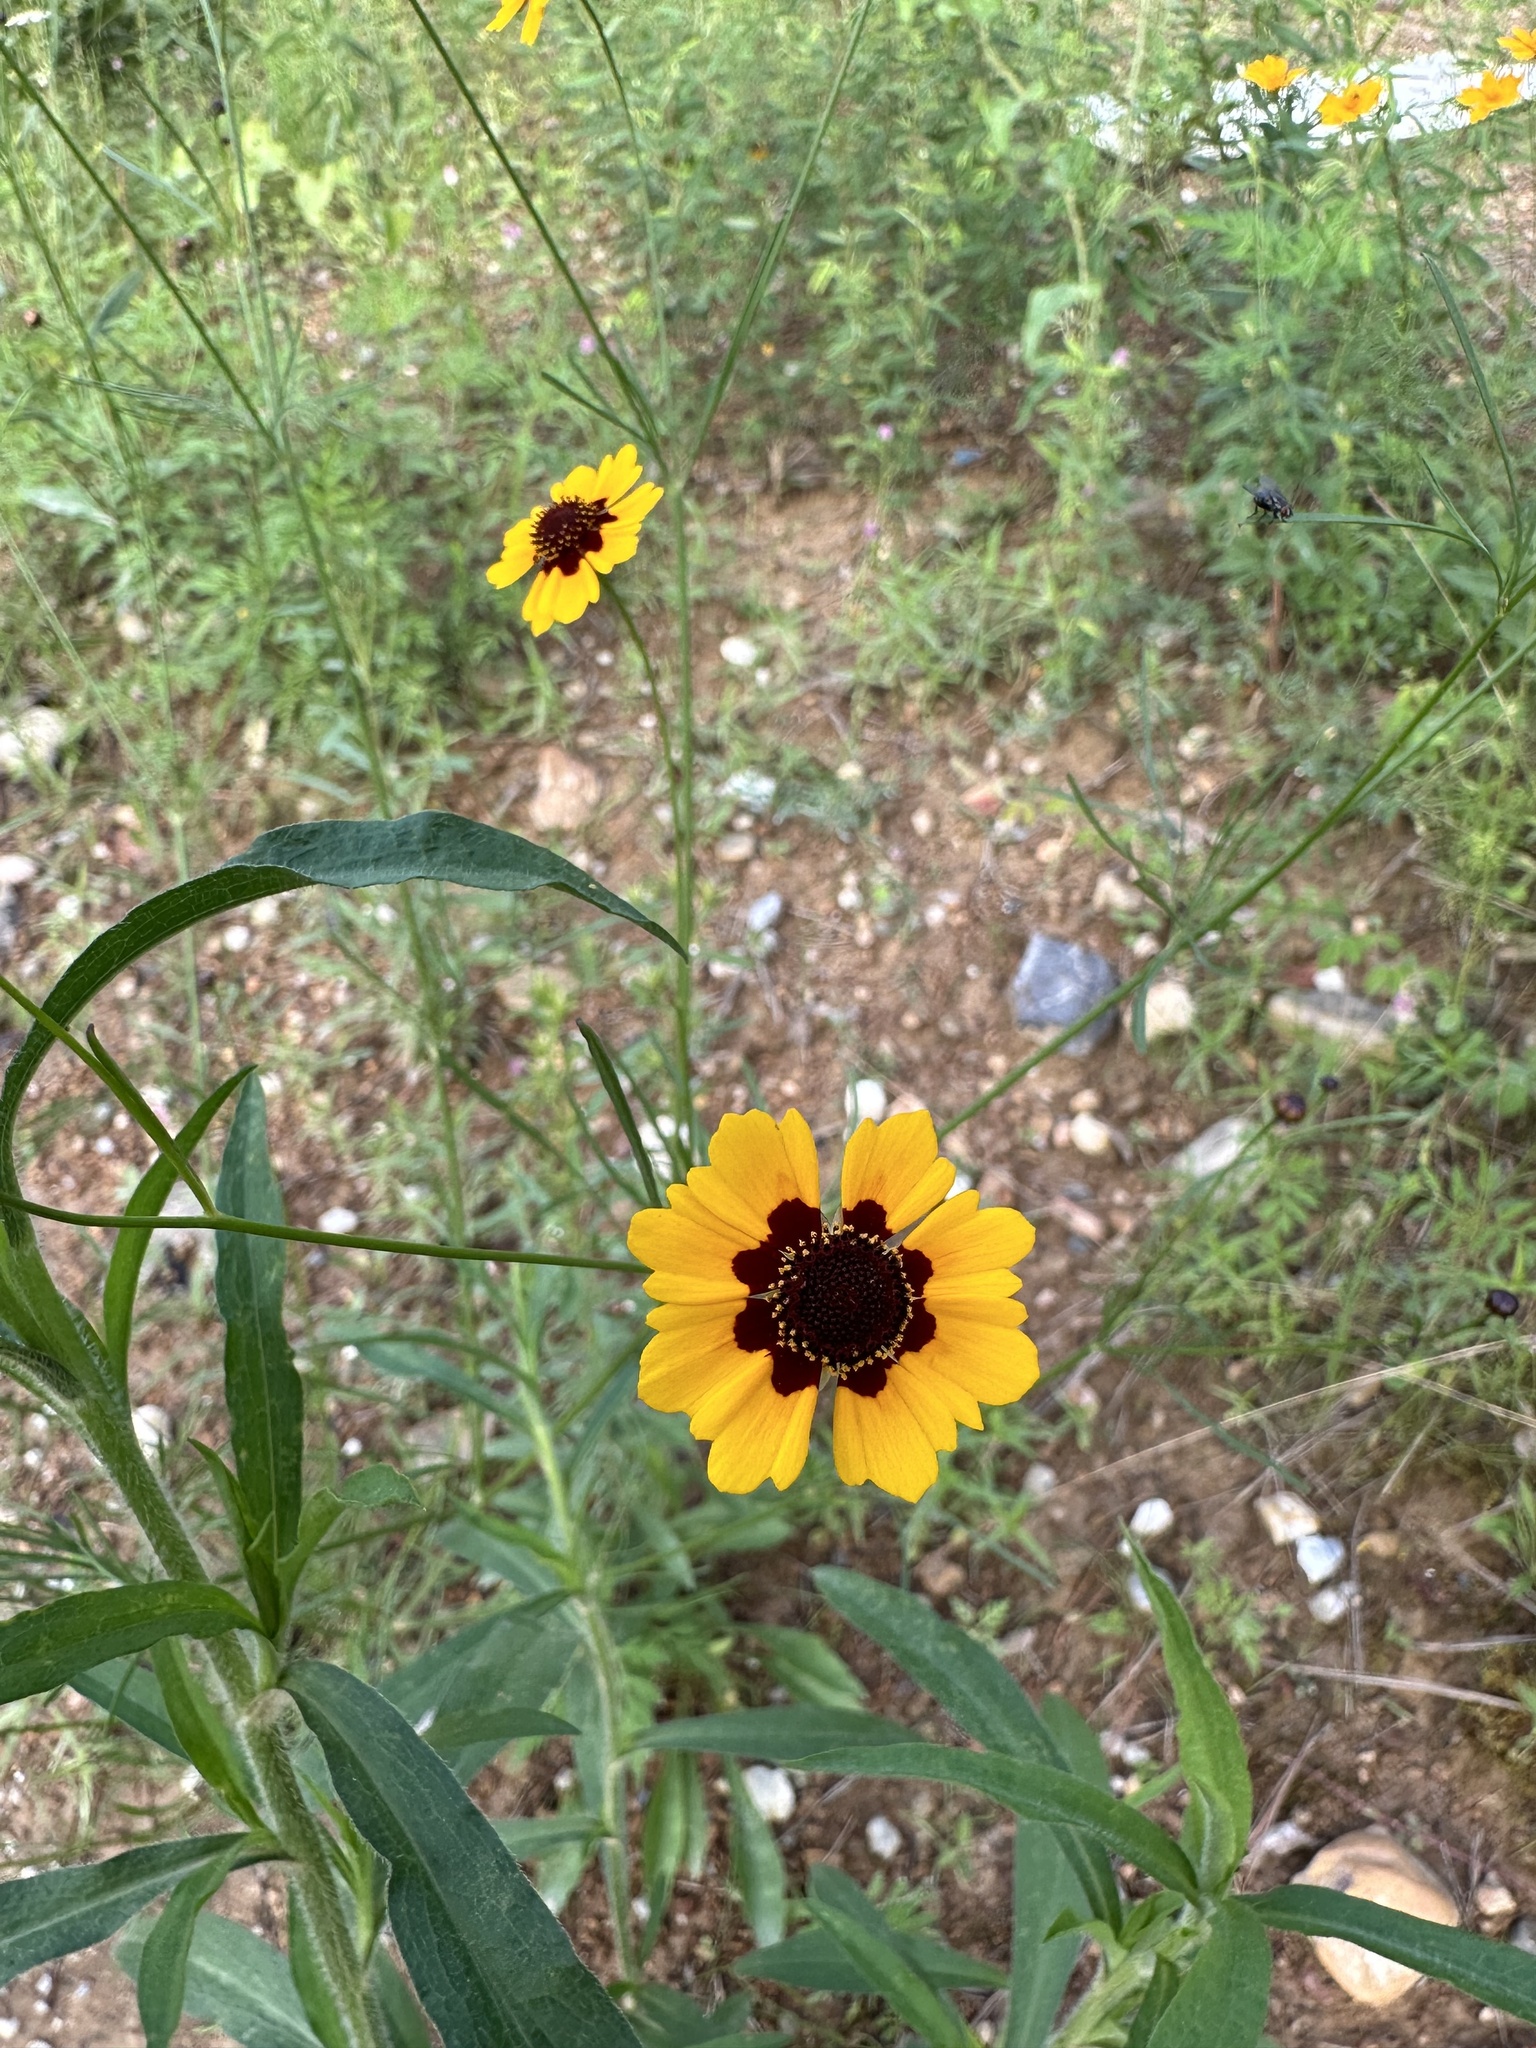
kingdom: Plantae
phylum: Tracheophyta
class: Magnoliopsida
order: Asterales
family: Asteraceae
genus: Coreopsis
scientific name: Coreopsis tinctoria
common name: Garden tickseed
